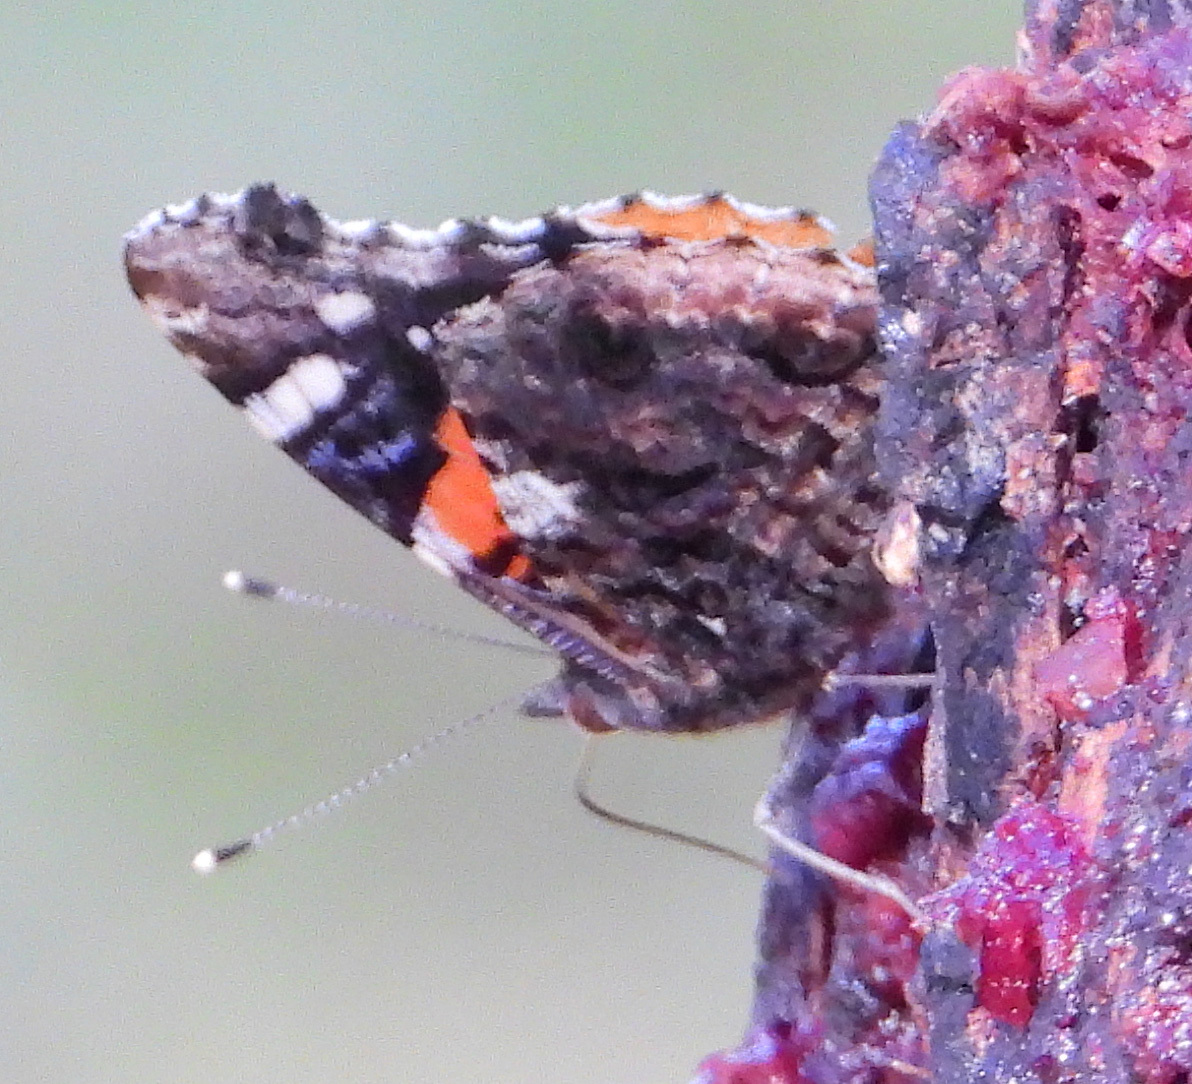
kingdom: Animalia
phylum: Arthropoda
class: Insecta
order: Lepidoptera
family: Nymphalidae
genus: Vanessa
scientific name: Vanessa atalanta
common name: Red admiral
